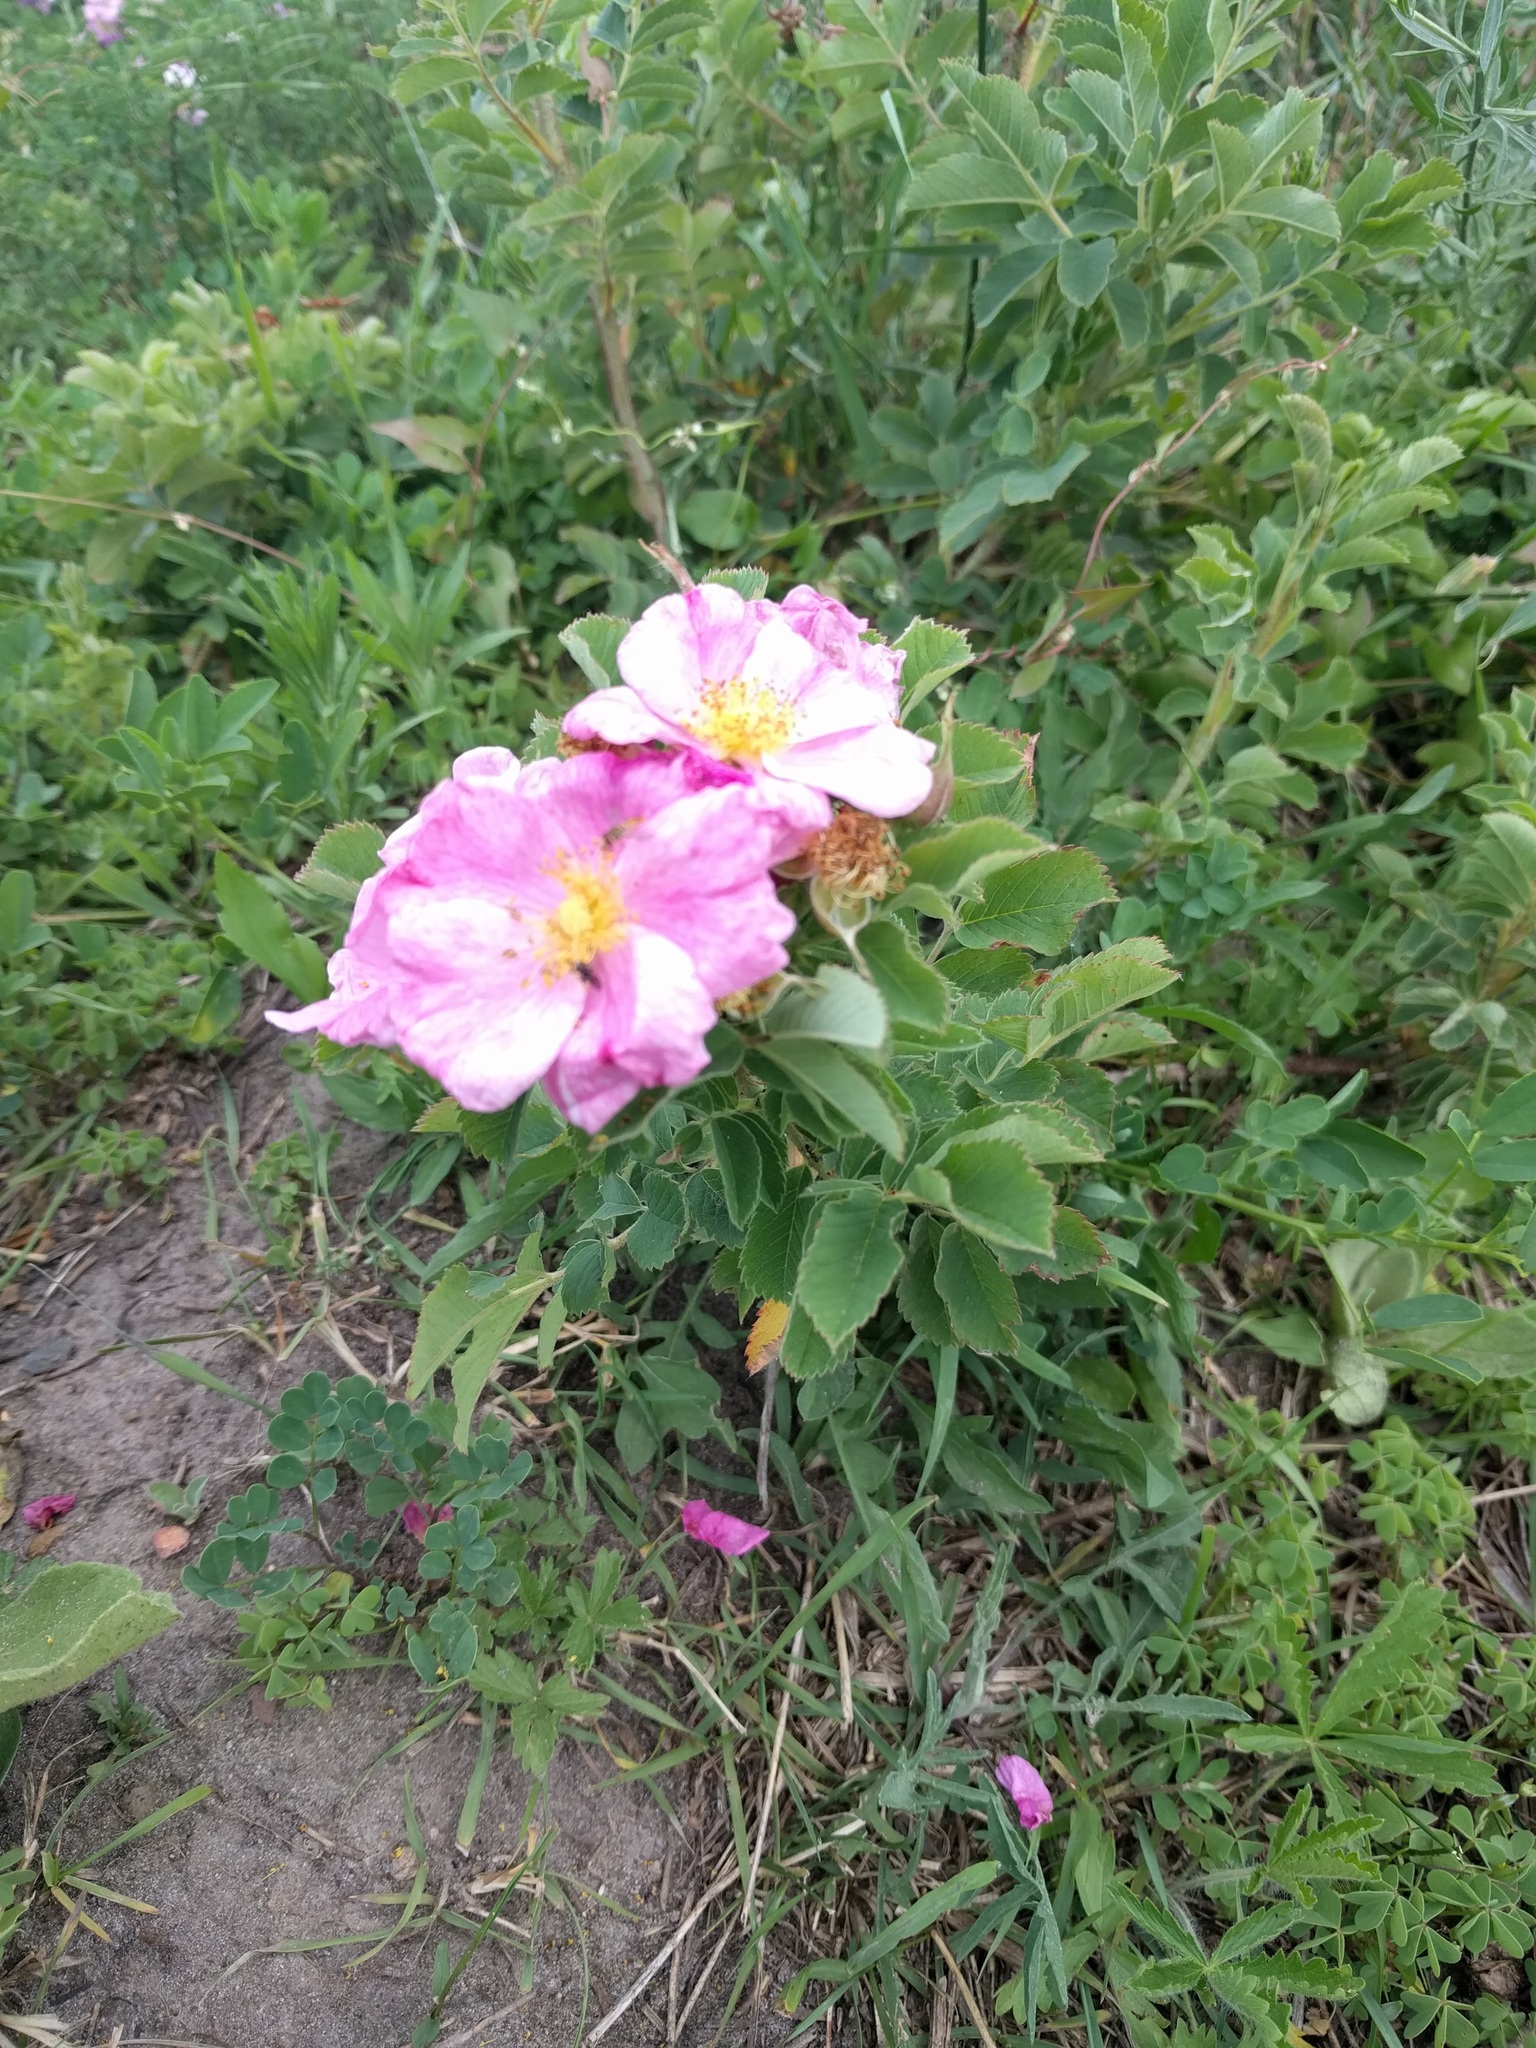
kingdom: Plantae
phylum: Tracheophyta
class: Magnoliopsida
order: Rosales
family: Rosaceae
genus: Rosa
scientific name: Rosa arkansana
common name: Prairie rose
